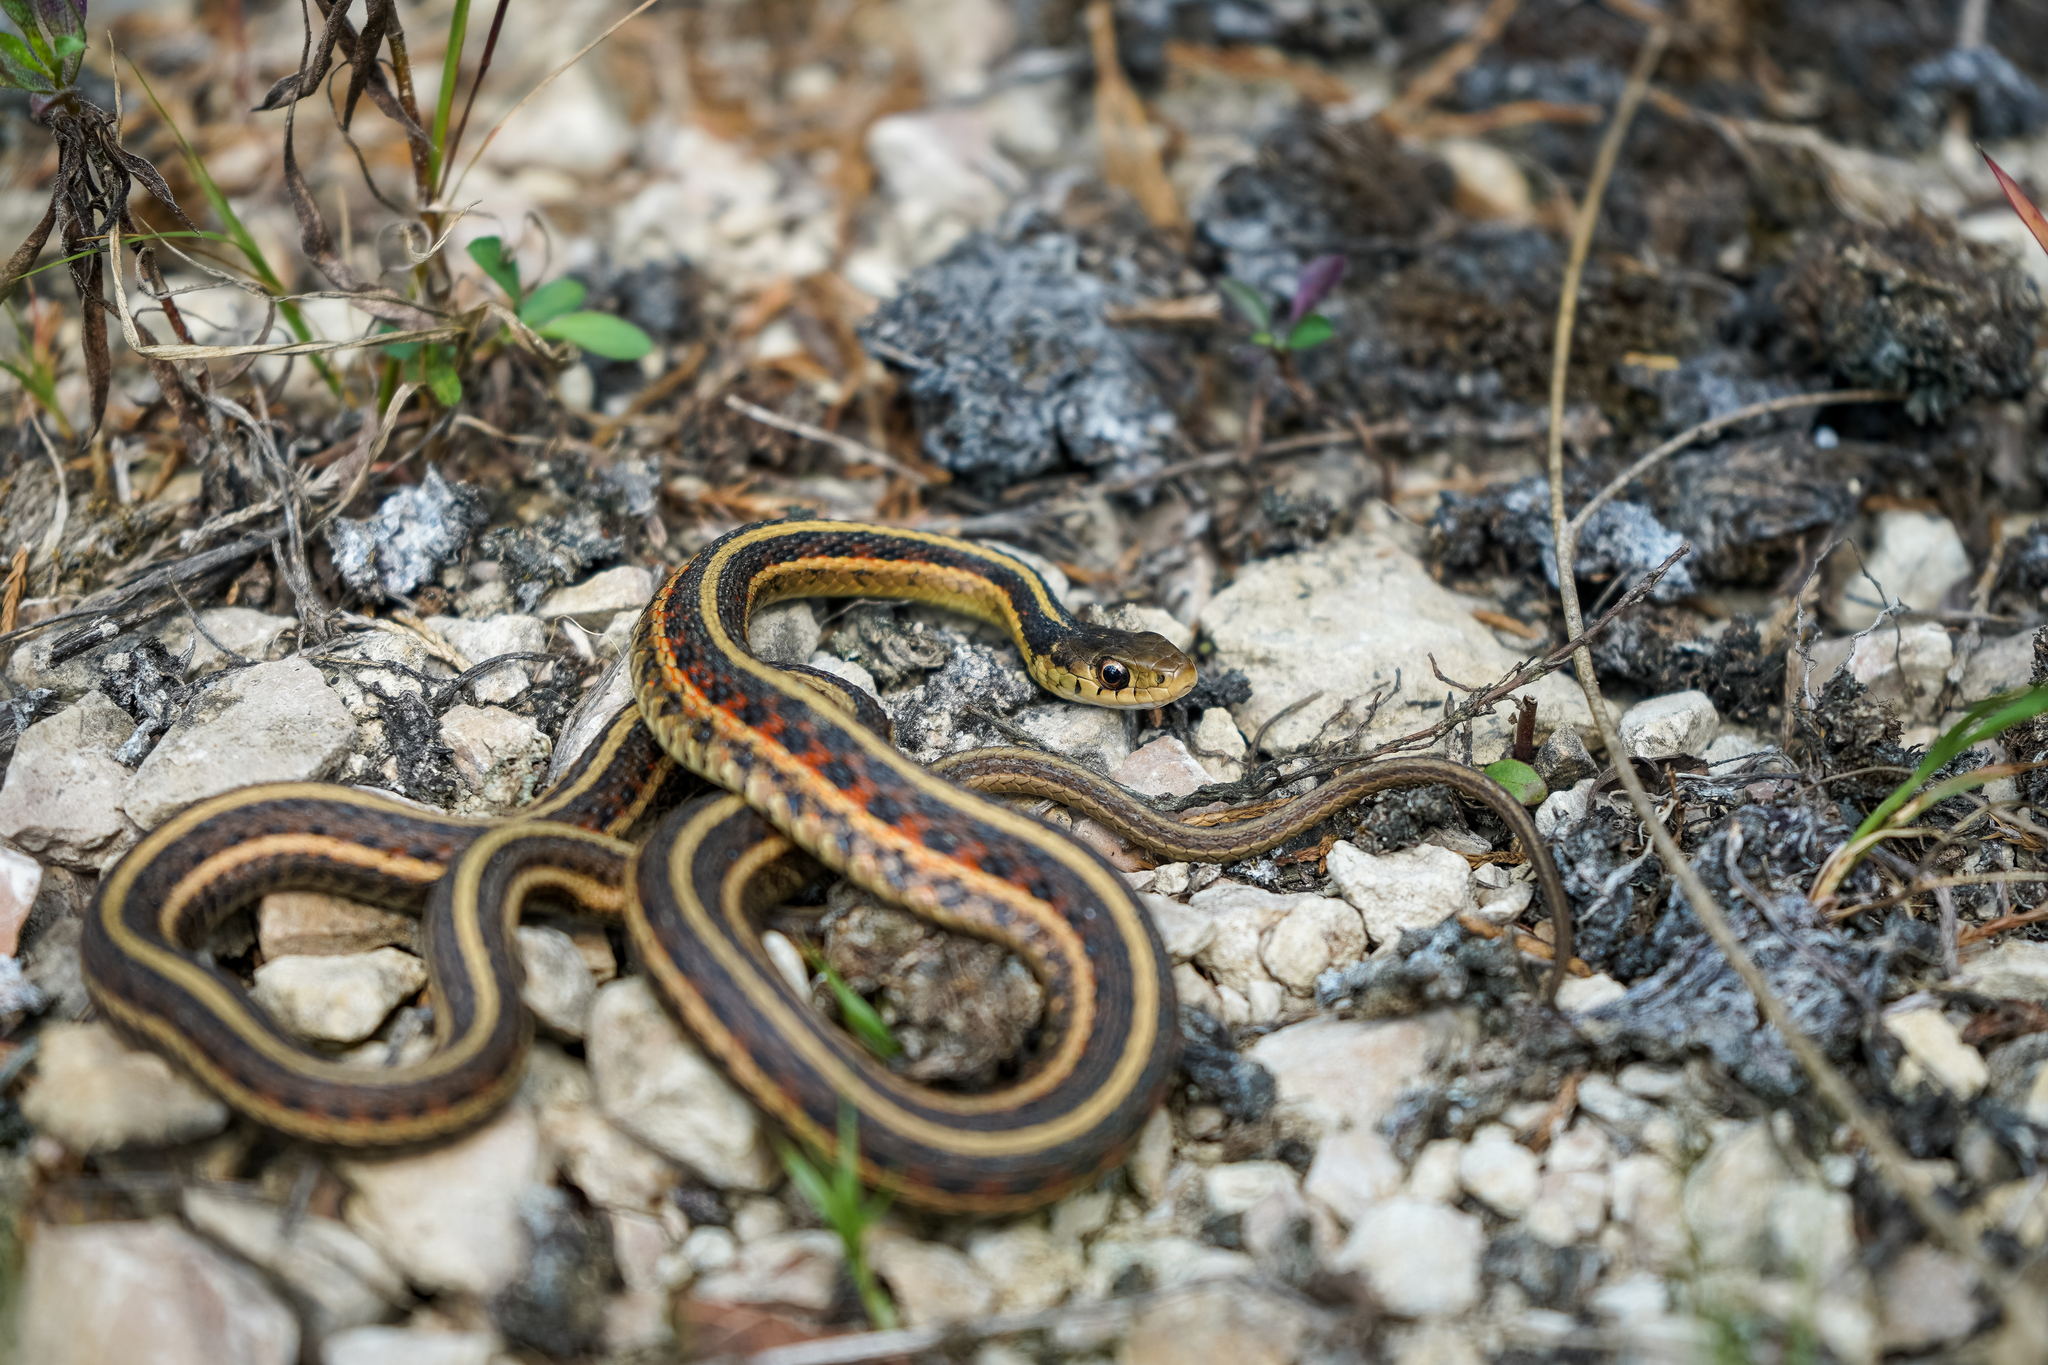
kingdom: Animalia
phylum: Chordata
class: Squamata
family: Colubridae
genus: Thamnophis
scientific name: Thamnophis sirtalis
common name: Common garter snake
